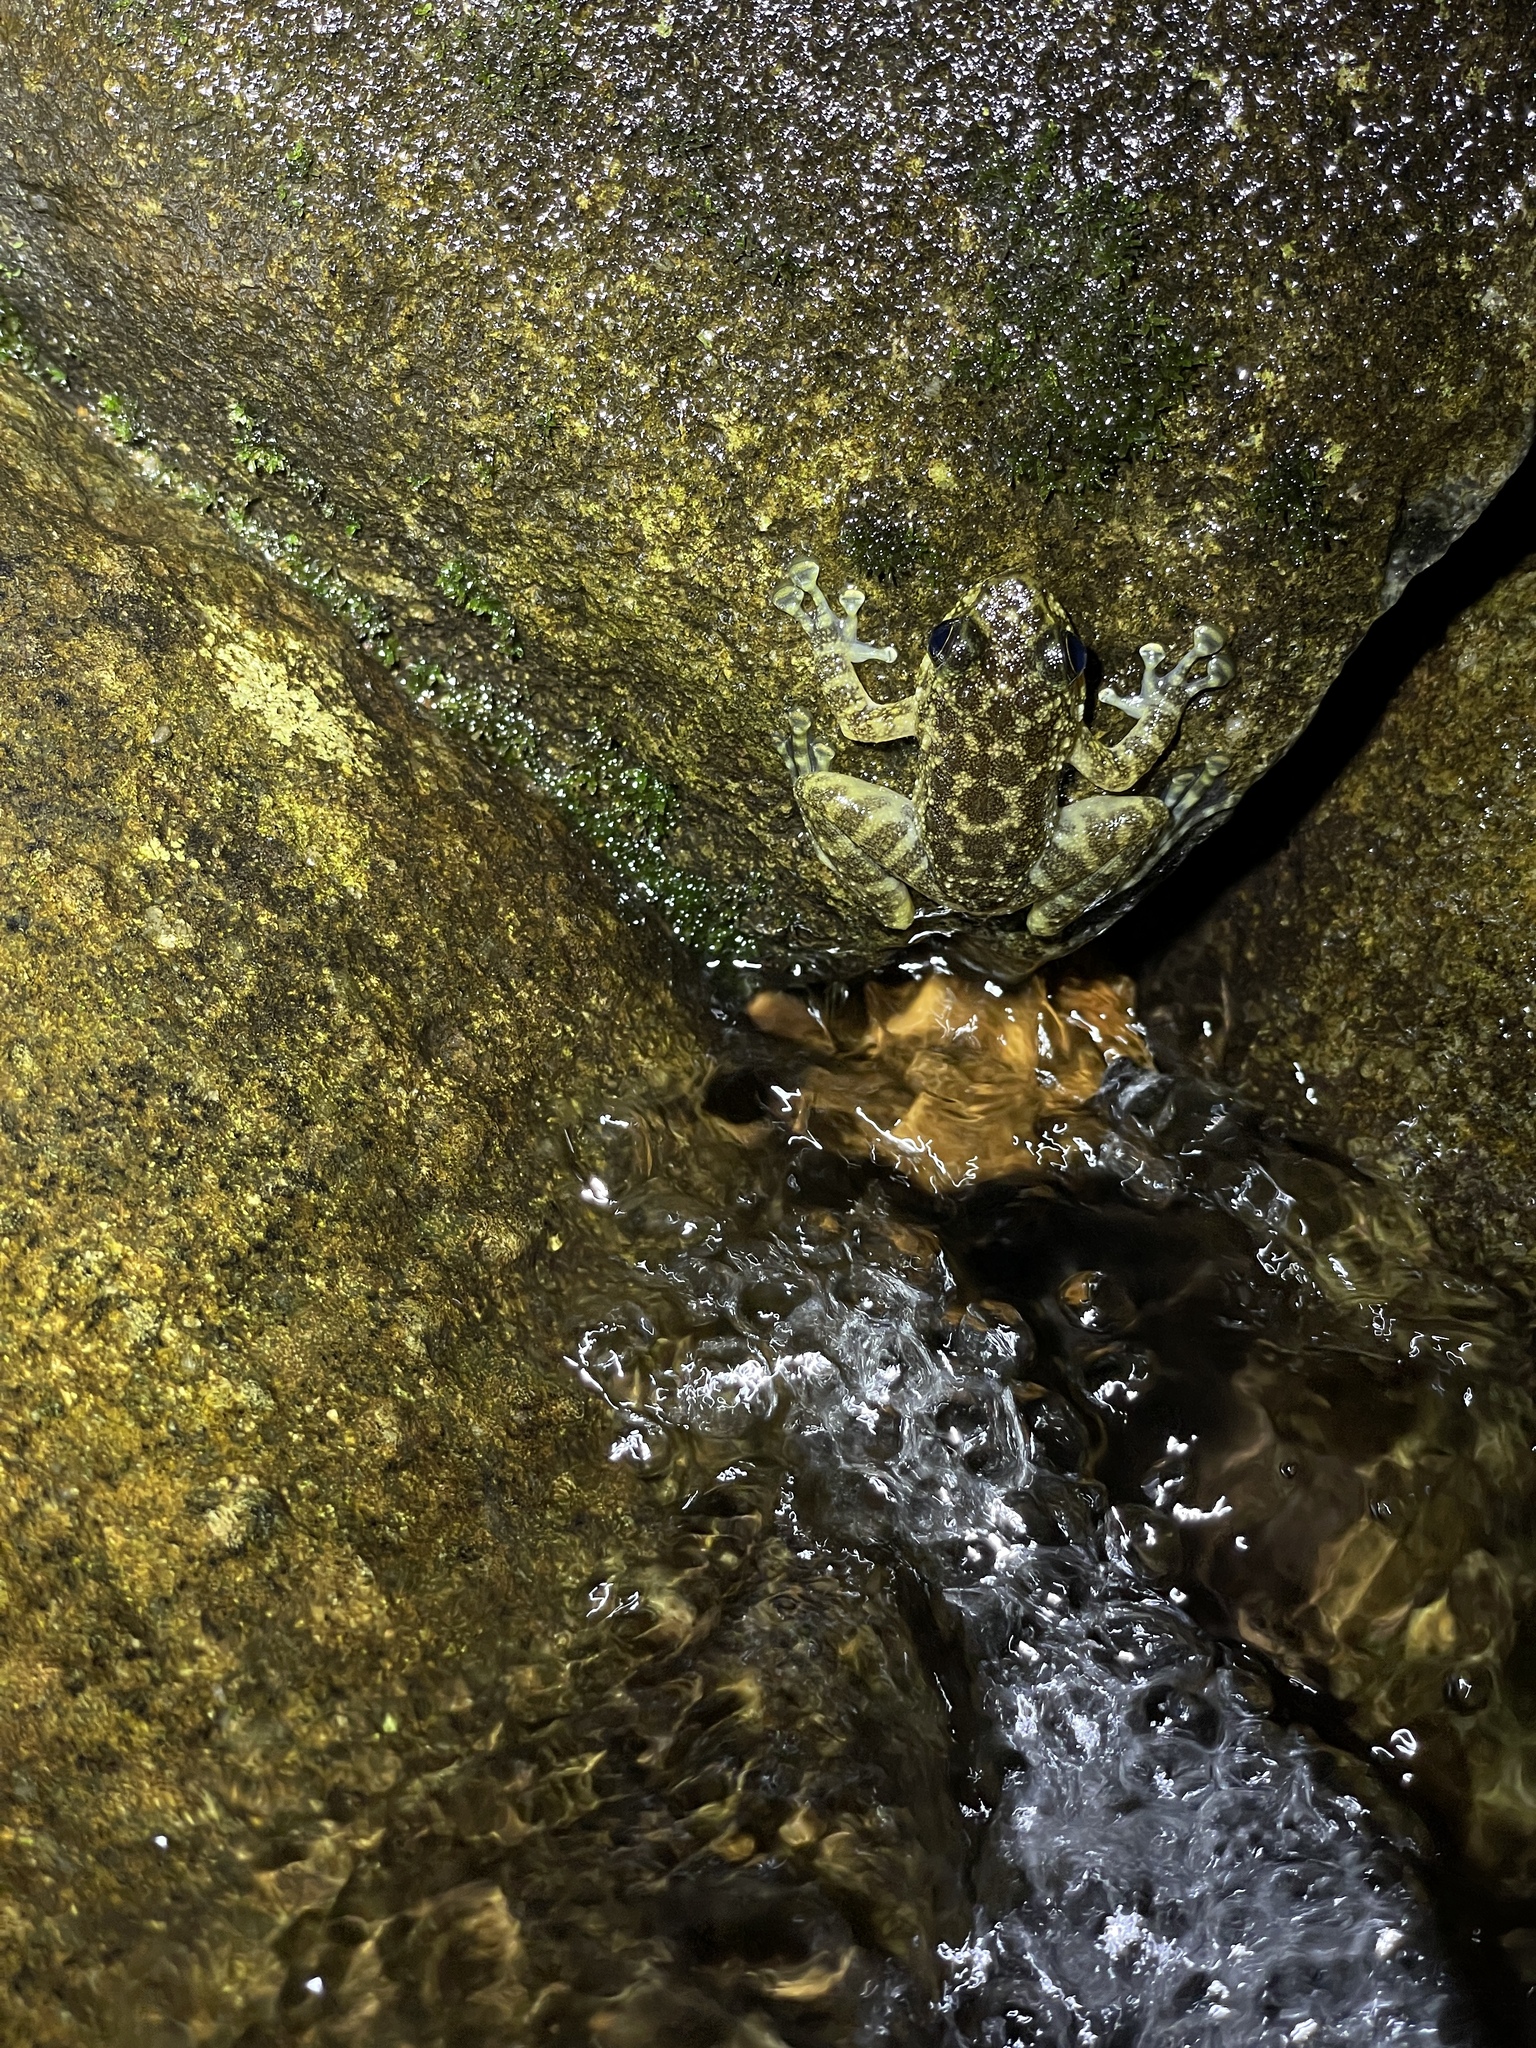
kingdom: Animalia
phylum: Chordata
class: Amphibia
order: Anura
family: Ranidae
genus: Amolops
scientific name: Amolops hongkongensis
